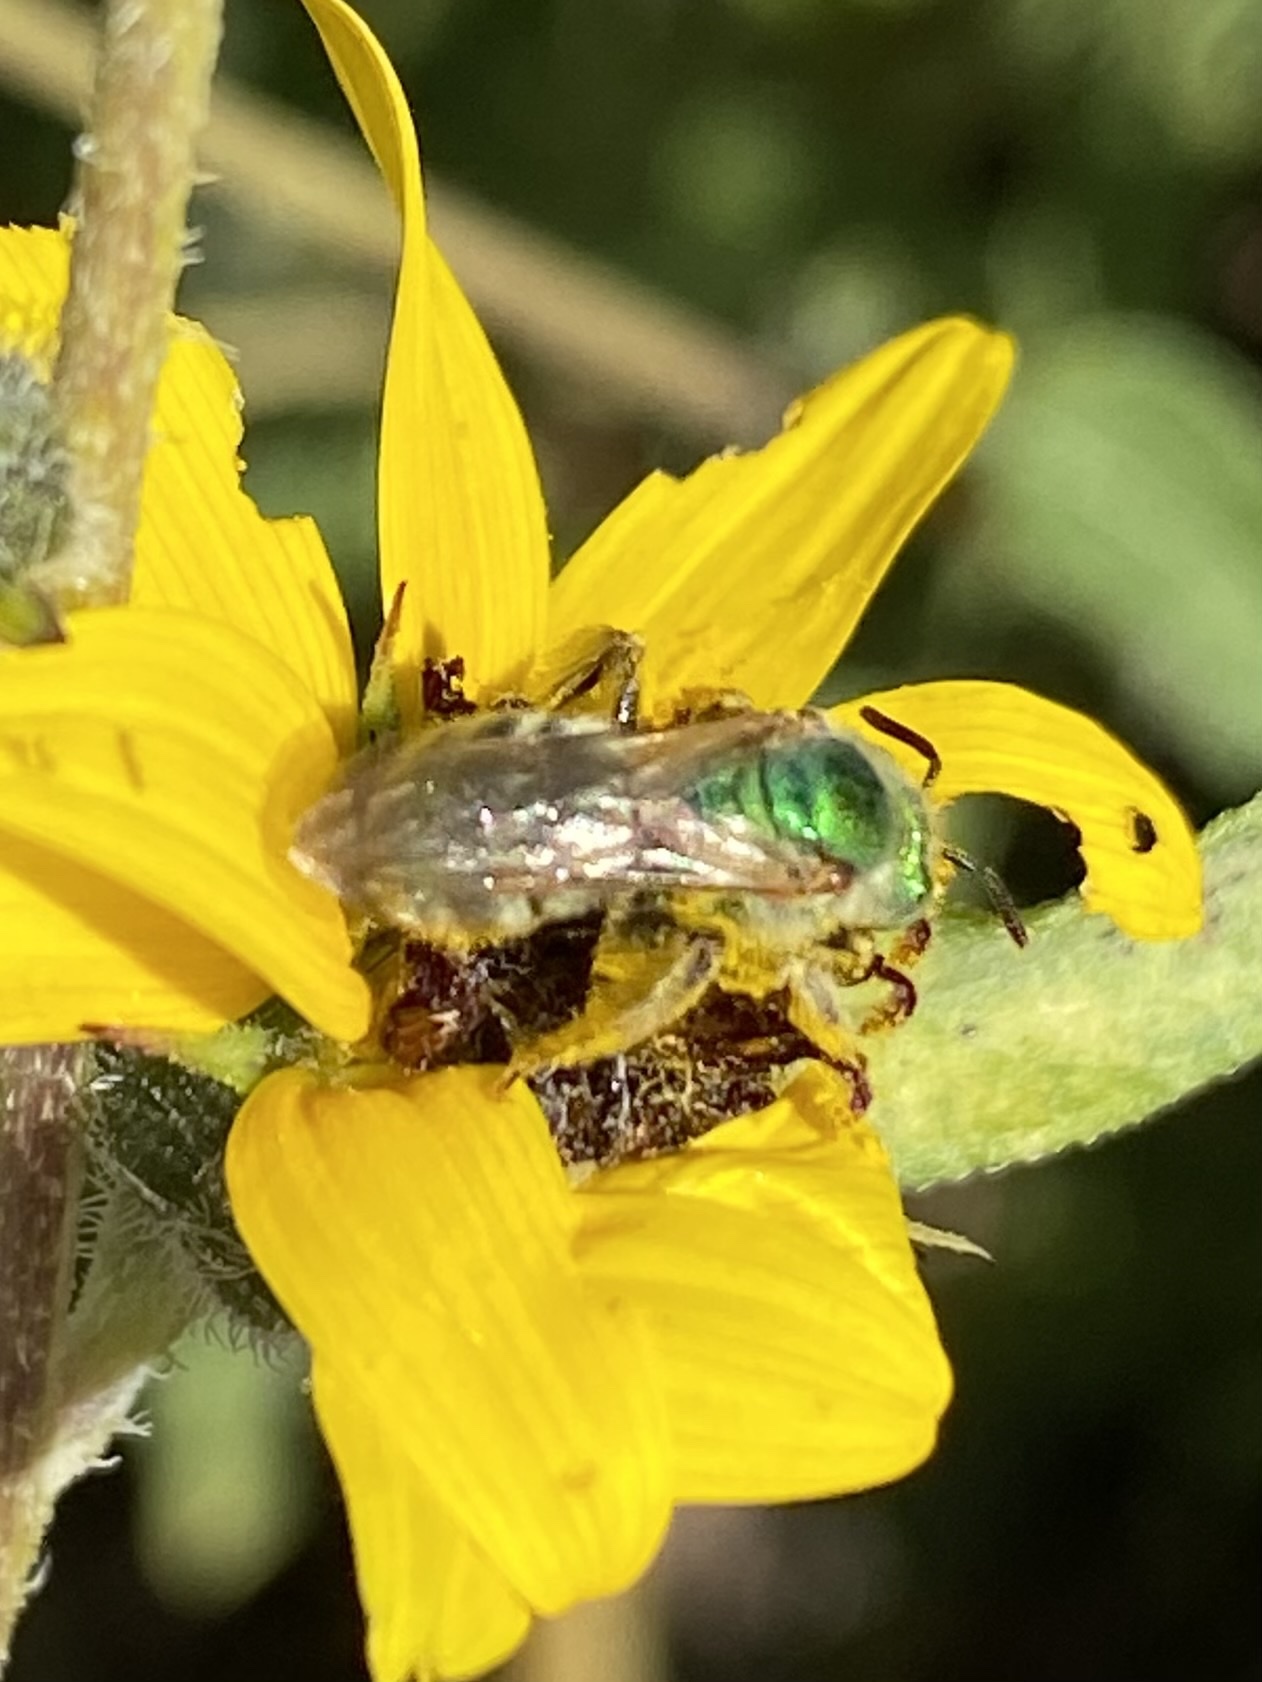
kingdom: Animalia
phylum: Arthropoda
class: Insecta
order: Hymenoptera
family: Halictidae
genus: Agapostemon
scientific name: Agapostemon
